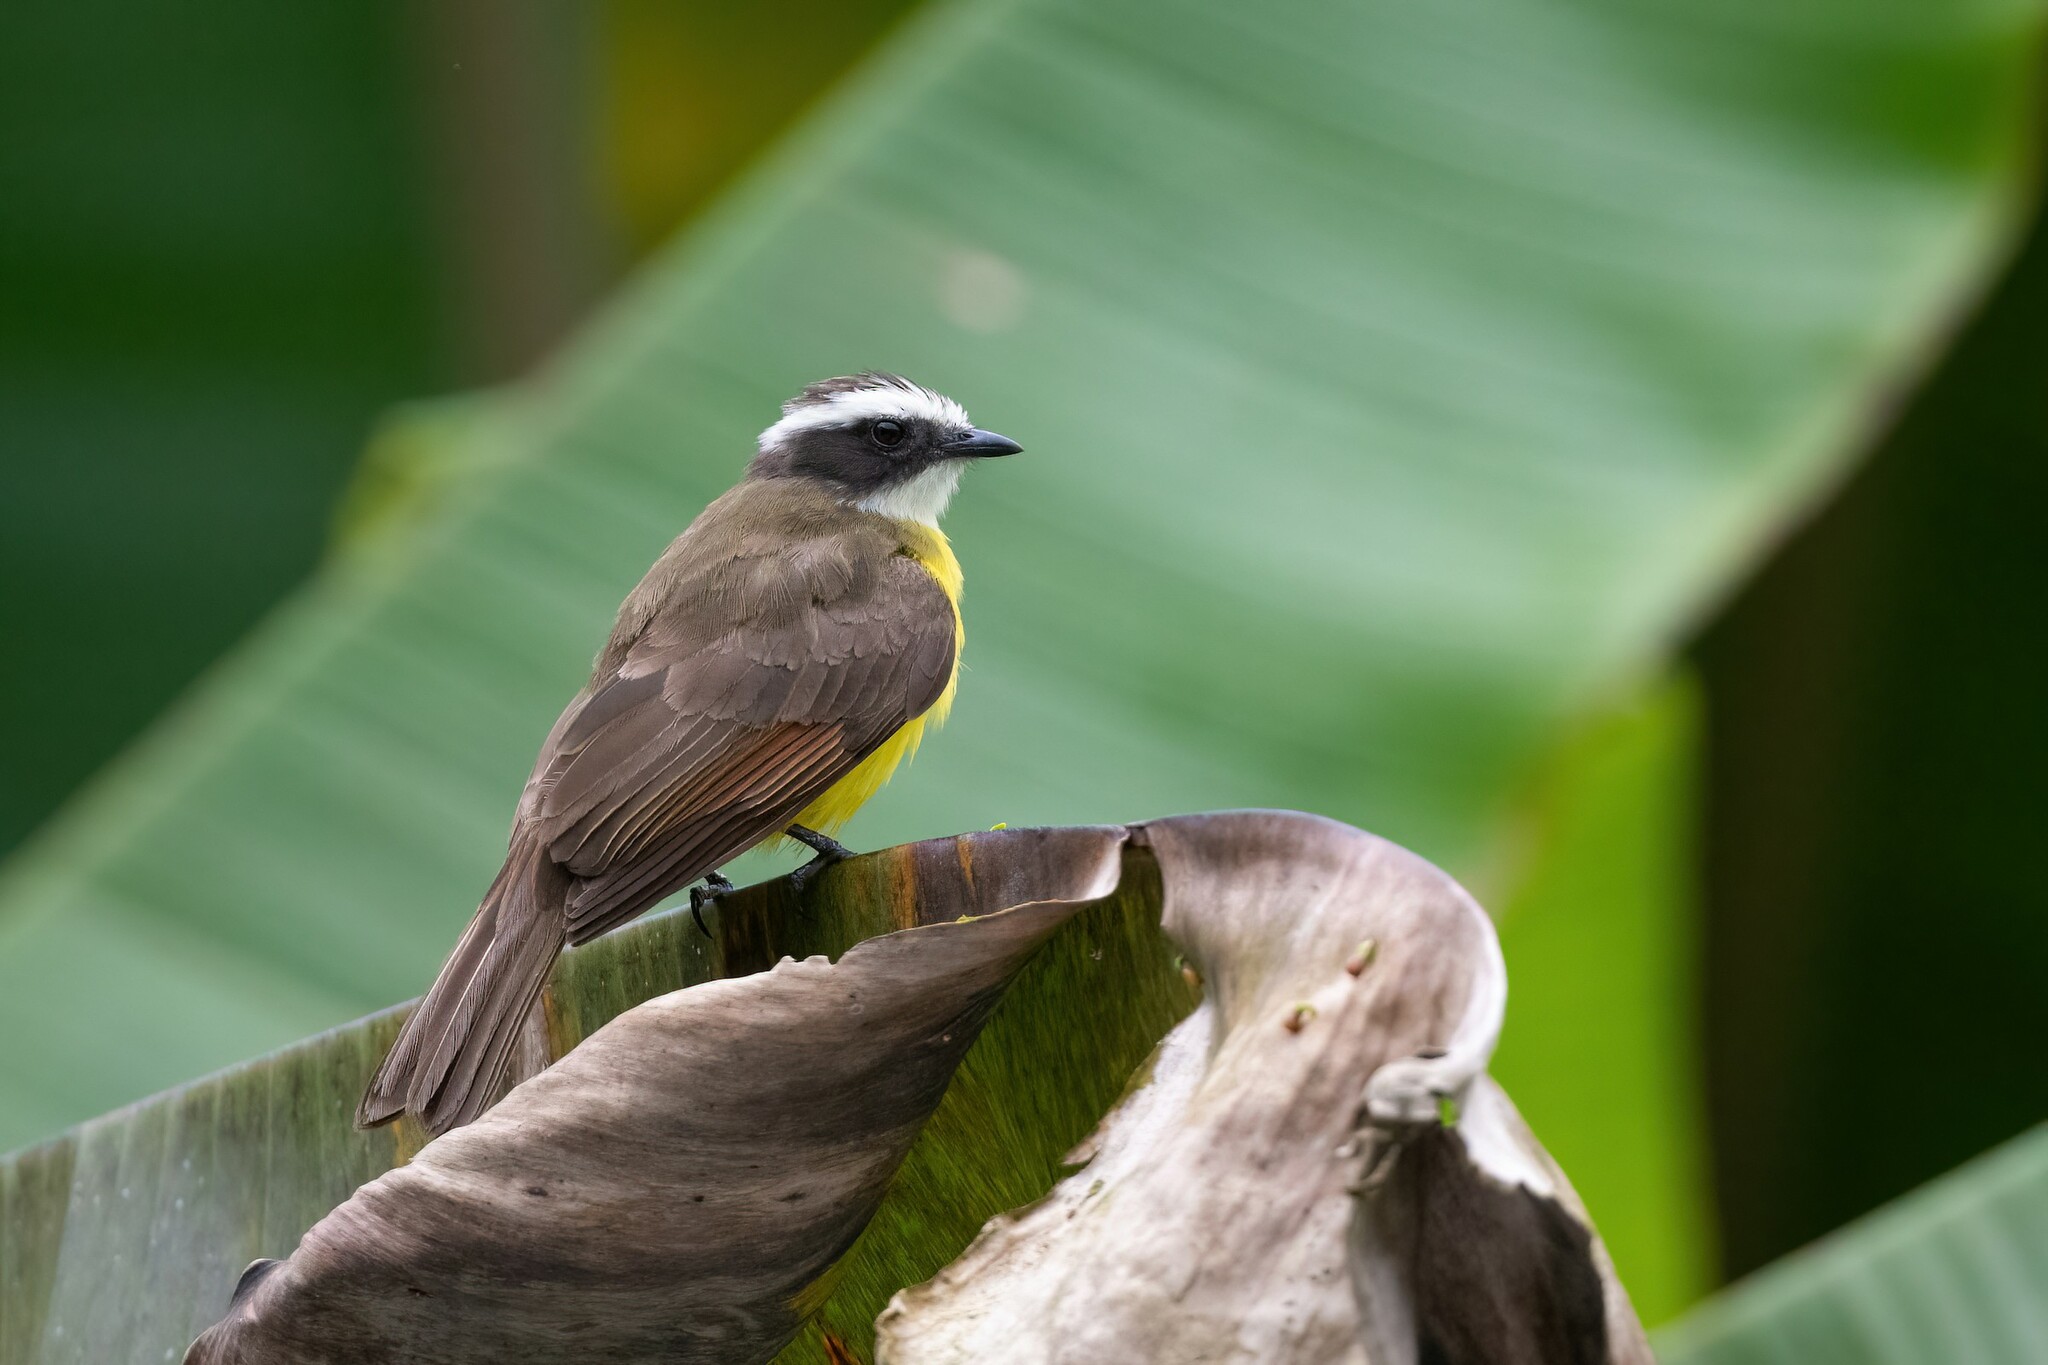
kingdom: Animalia
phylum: Chordata
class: Aves
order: Passeriformes
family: Tyrannidae
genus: Myiozetetes
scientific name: Myiozetetes cayanensis
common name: Rusty-margined flycatcher
